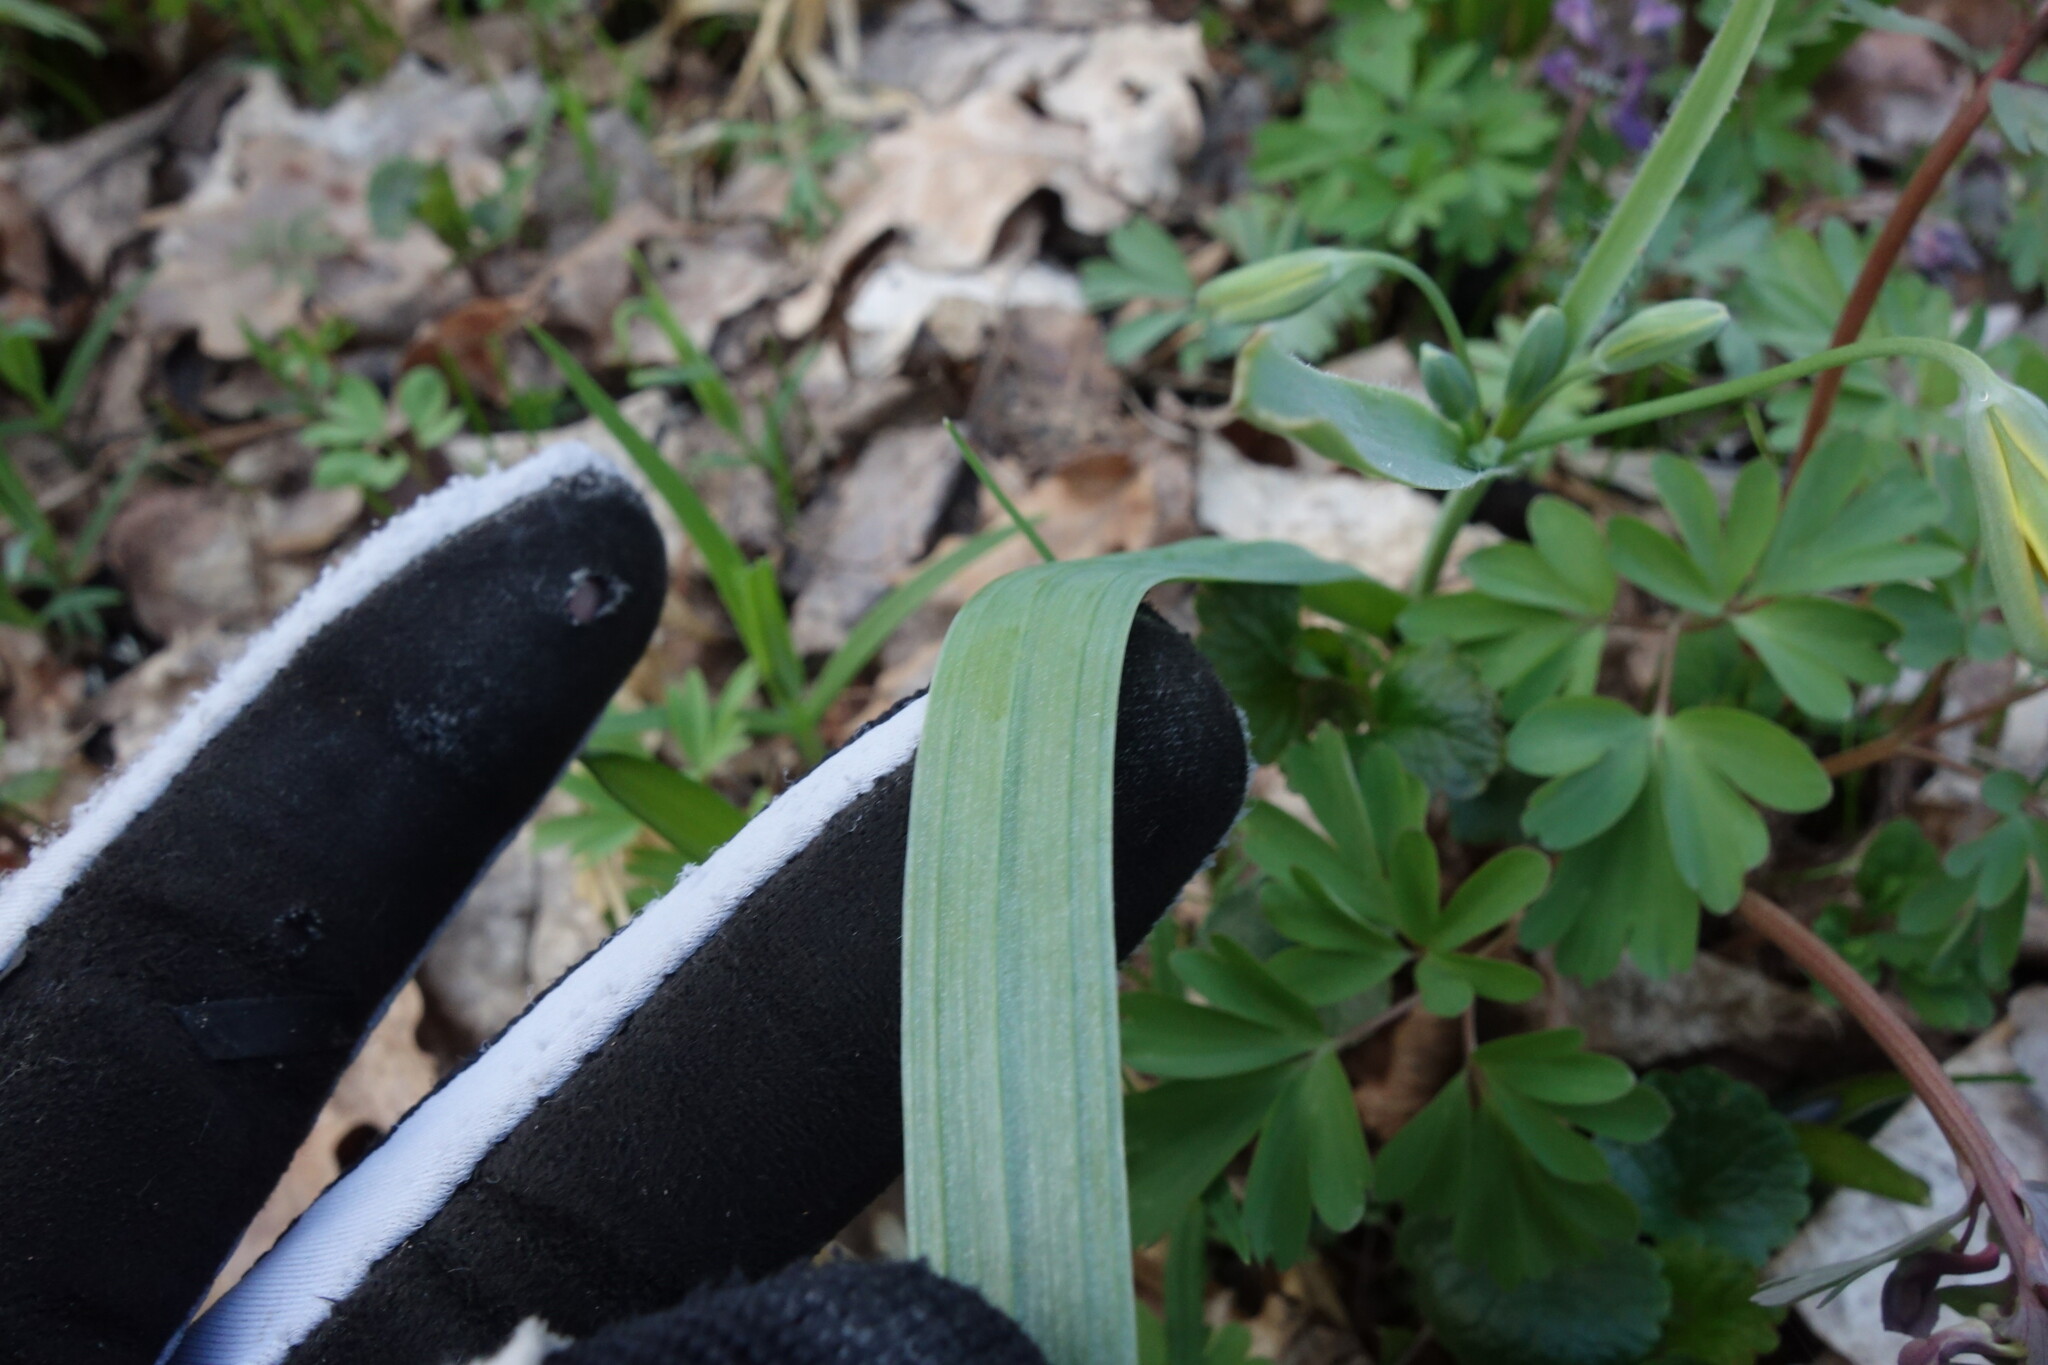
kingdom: Plantae
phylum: Tracheophyta
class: Liliopsida
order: Liliales
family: Liliaceae
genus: Gagea
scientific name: Gagea lutea
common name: Yellow star-of-bethlehem
